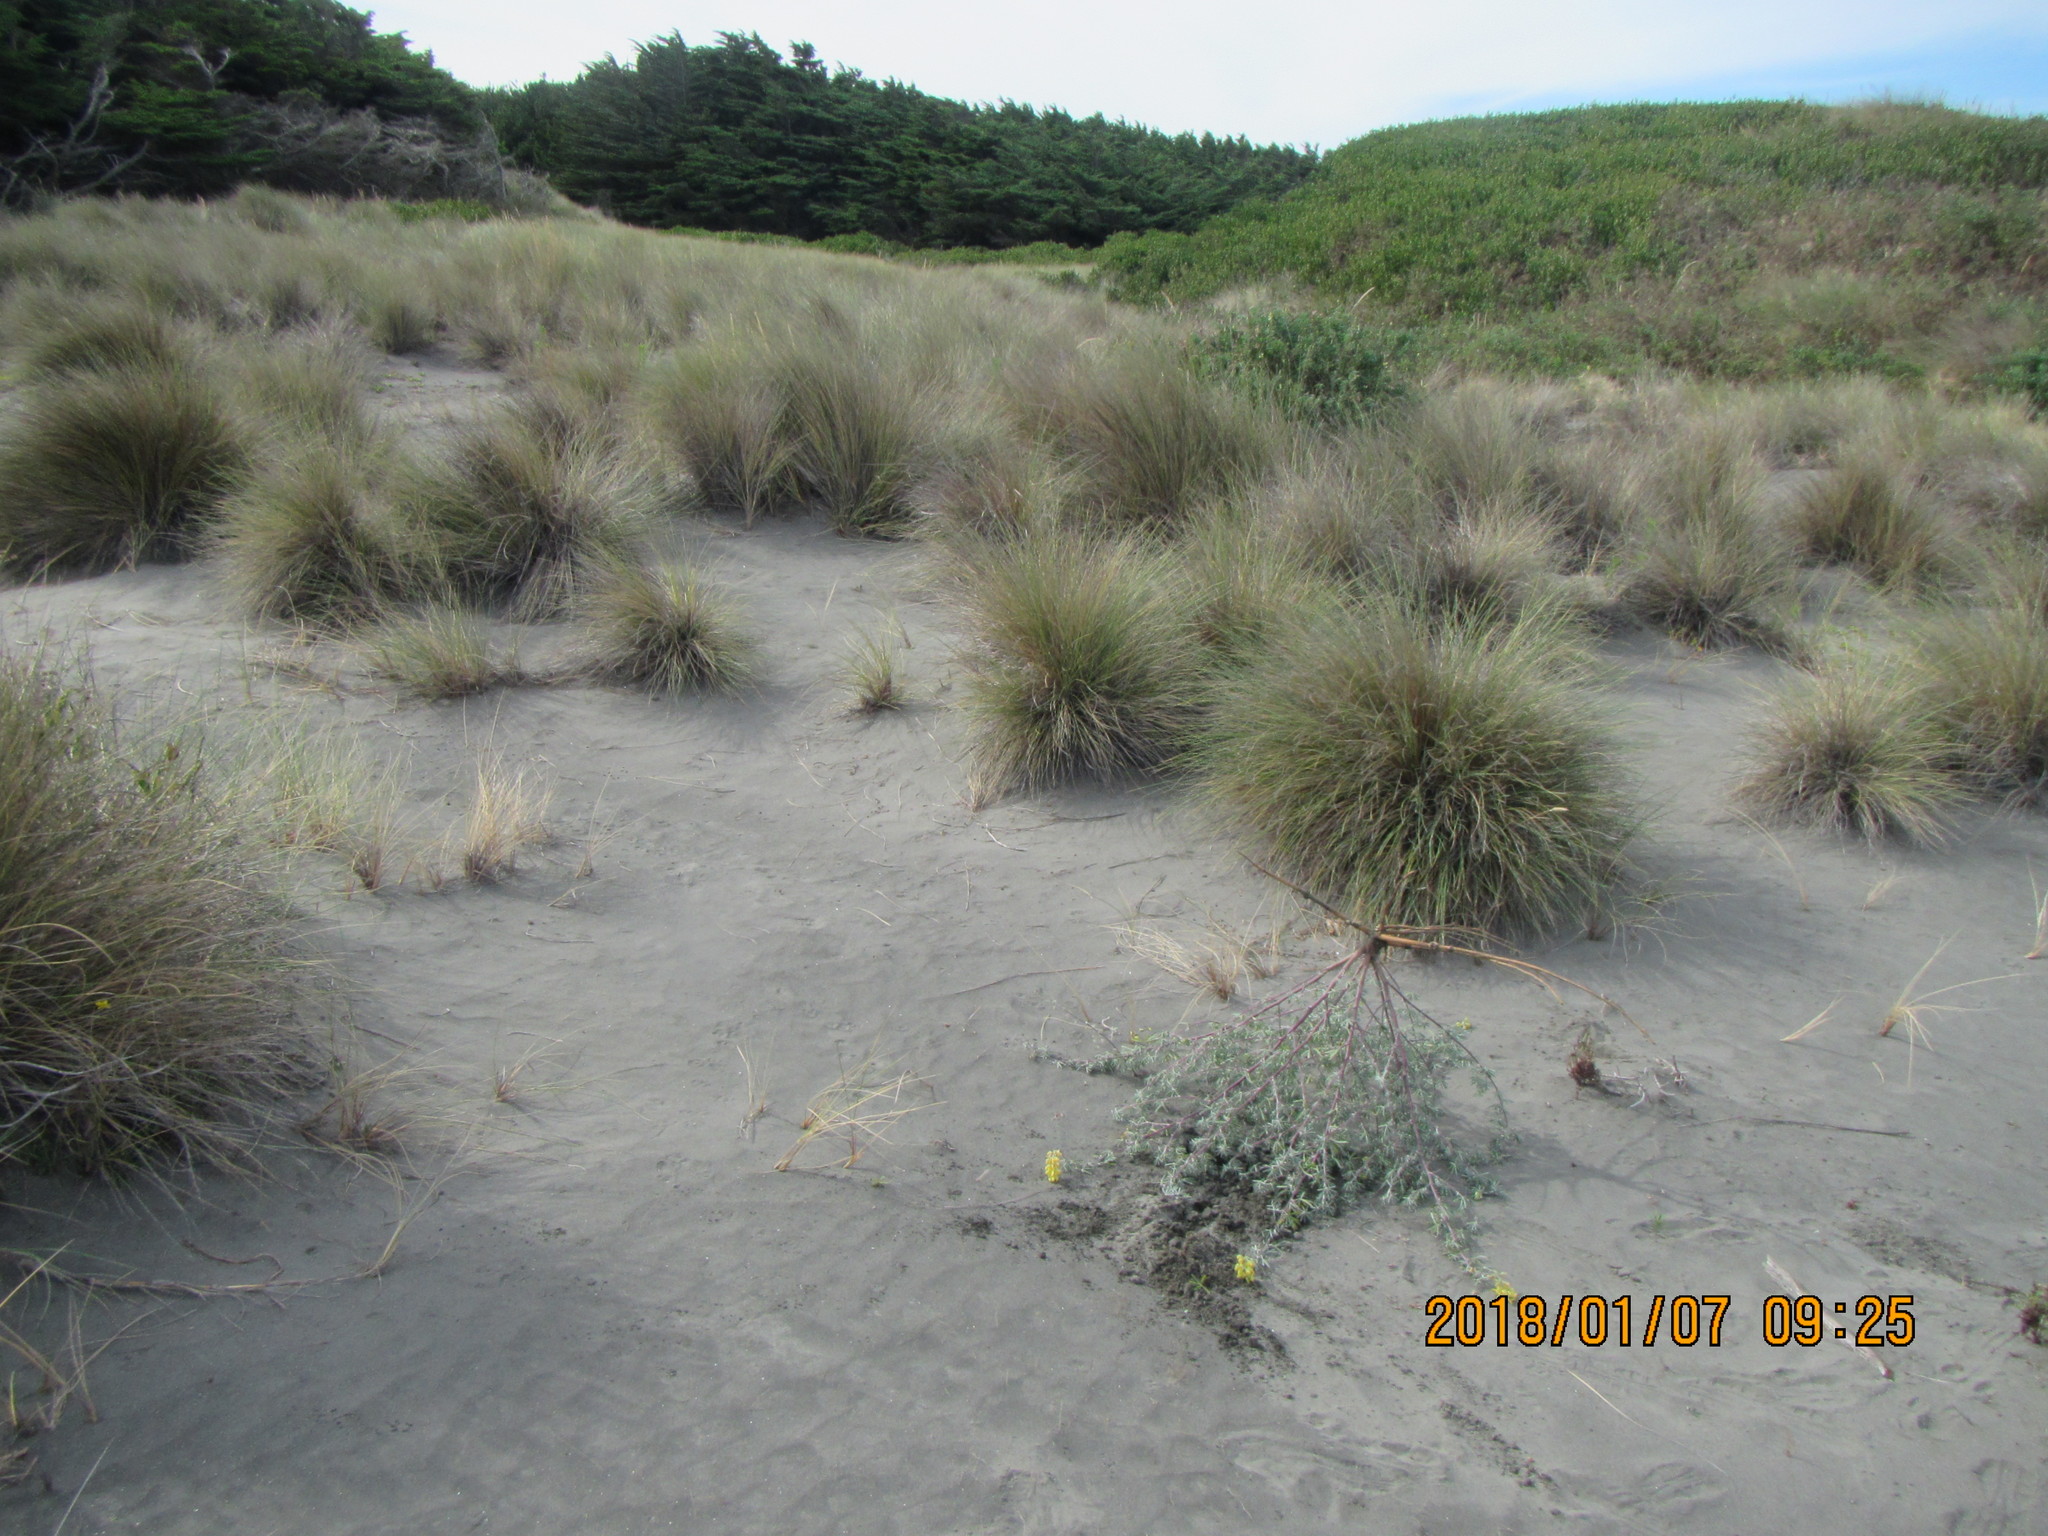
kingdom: Plantae
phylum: Tracheophyta
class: Magnoliopsida
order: Fabales
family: Fabaceae
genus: Lupinus
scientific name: Lupinus arboreus
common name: Yellow bush lupine
